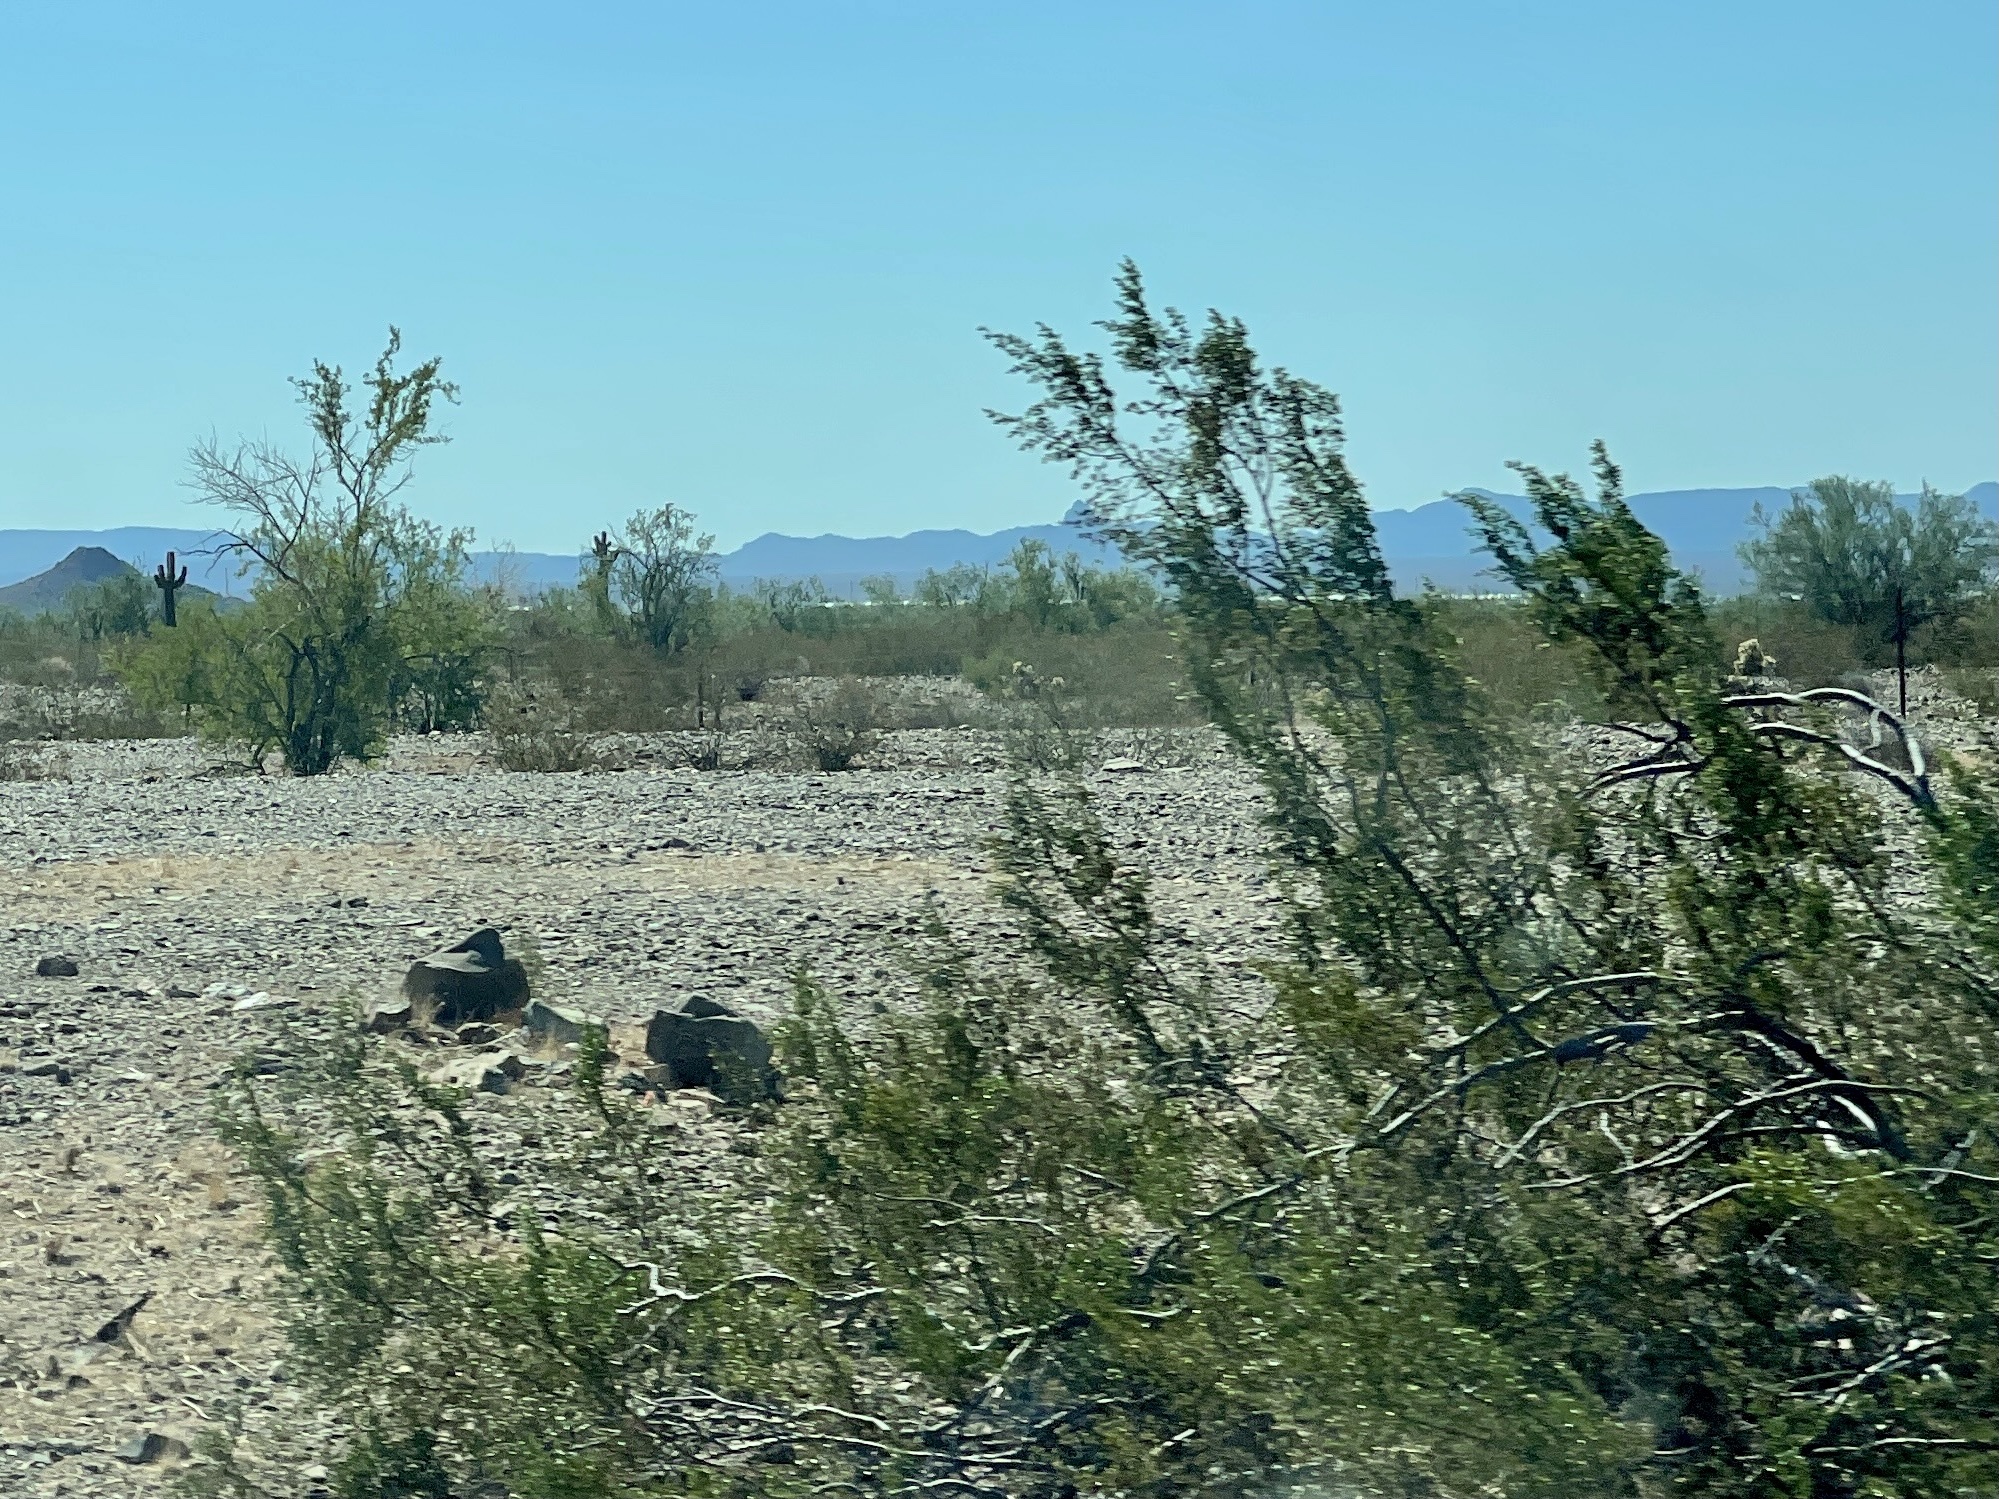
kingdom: Plantae
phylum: Tracheophyta
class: Magnoliopsida
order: Zygophyllales
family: Zygophyllaceae
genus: Larrea
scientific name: Larrea tridentata
